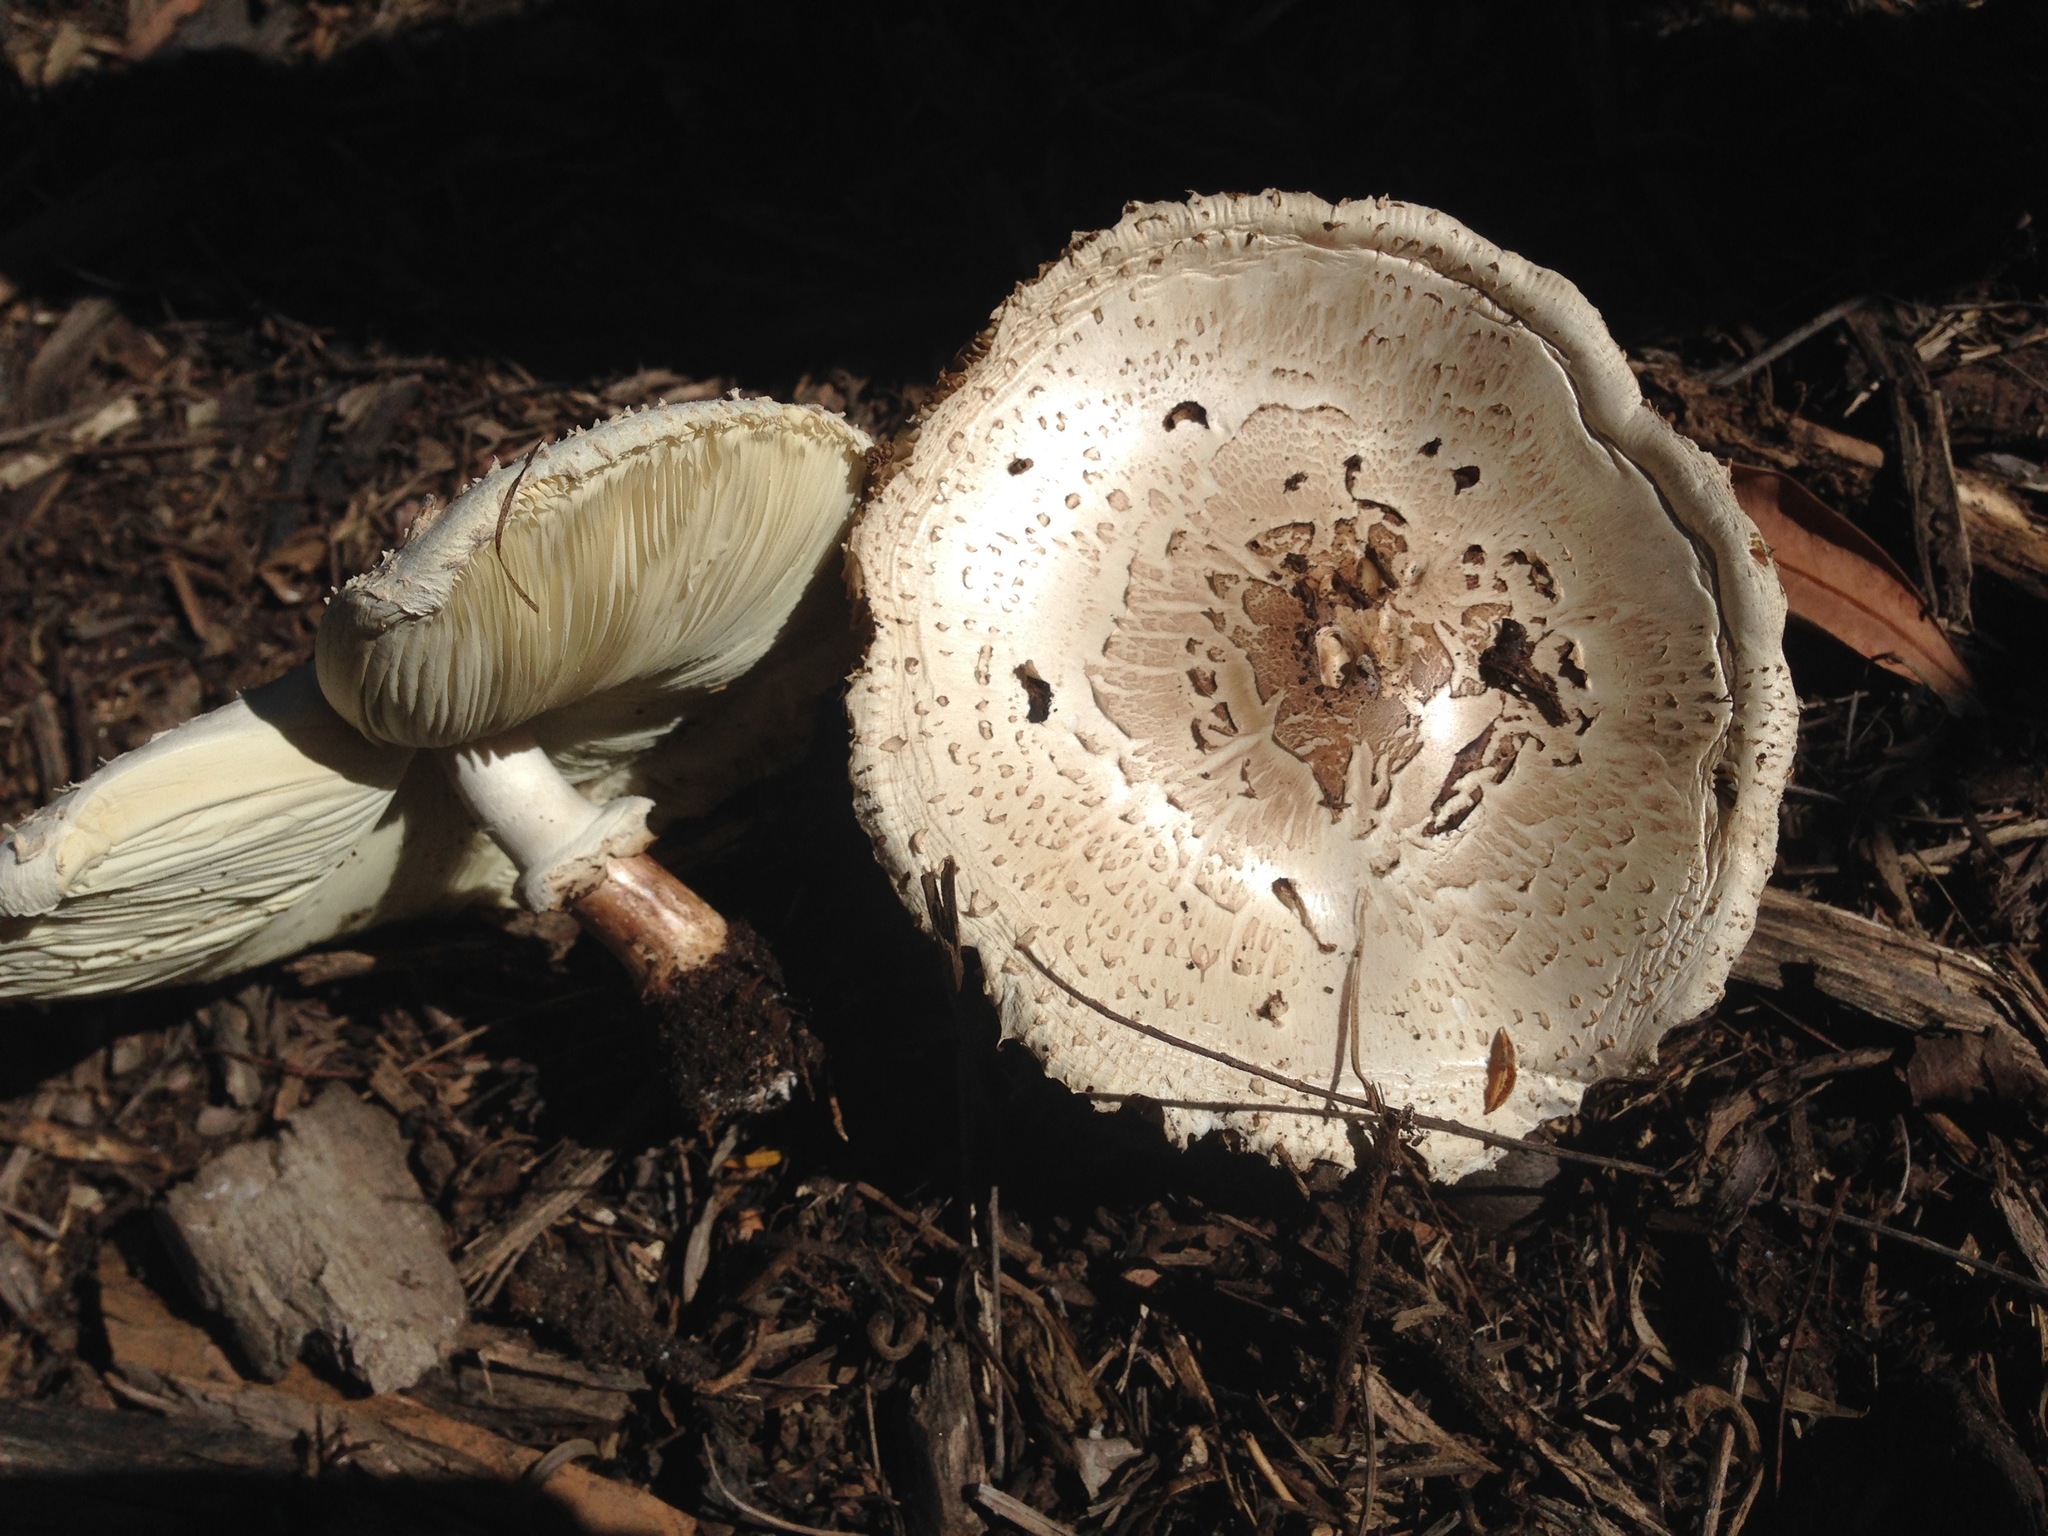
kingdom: Fungi
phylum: Basidiomycota
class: Agaricomycetes
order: Agaricales
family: Agaricaceae
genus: Chlorophyllum
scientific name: Chlorophyllum molybdites
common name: False parasol
